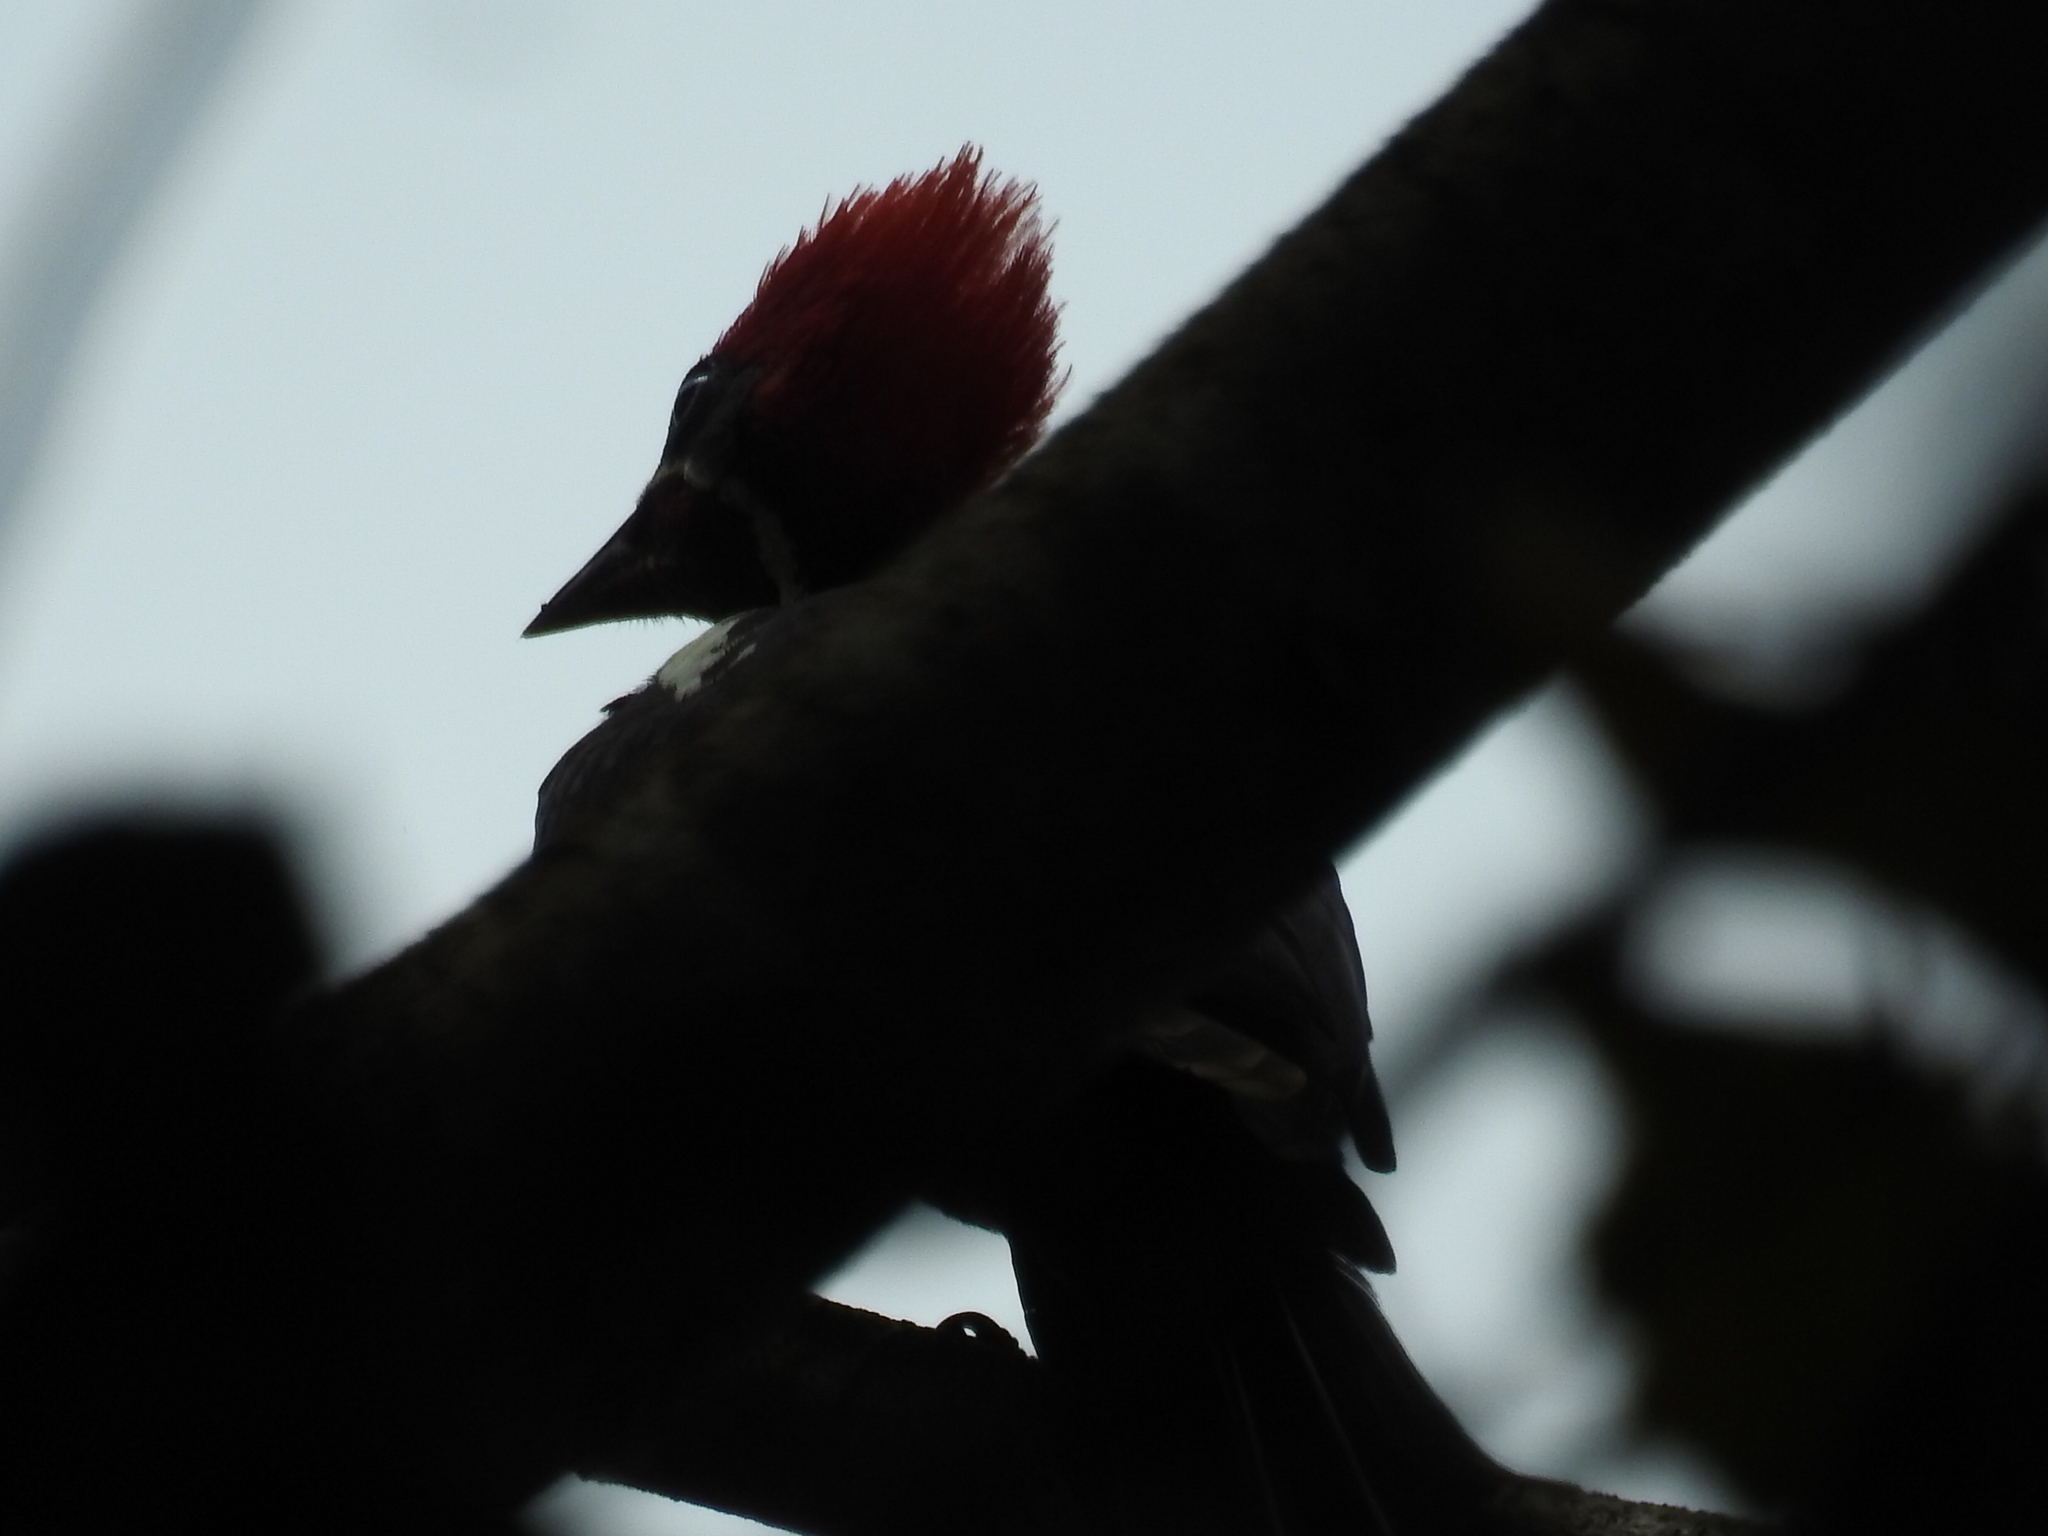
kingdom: Animalia
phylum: Chordata
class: Aves
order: Piciformes
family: Picidae
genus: Dryocopus
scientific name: Dryocopus lineatus
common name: Lineated woodpecker
